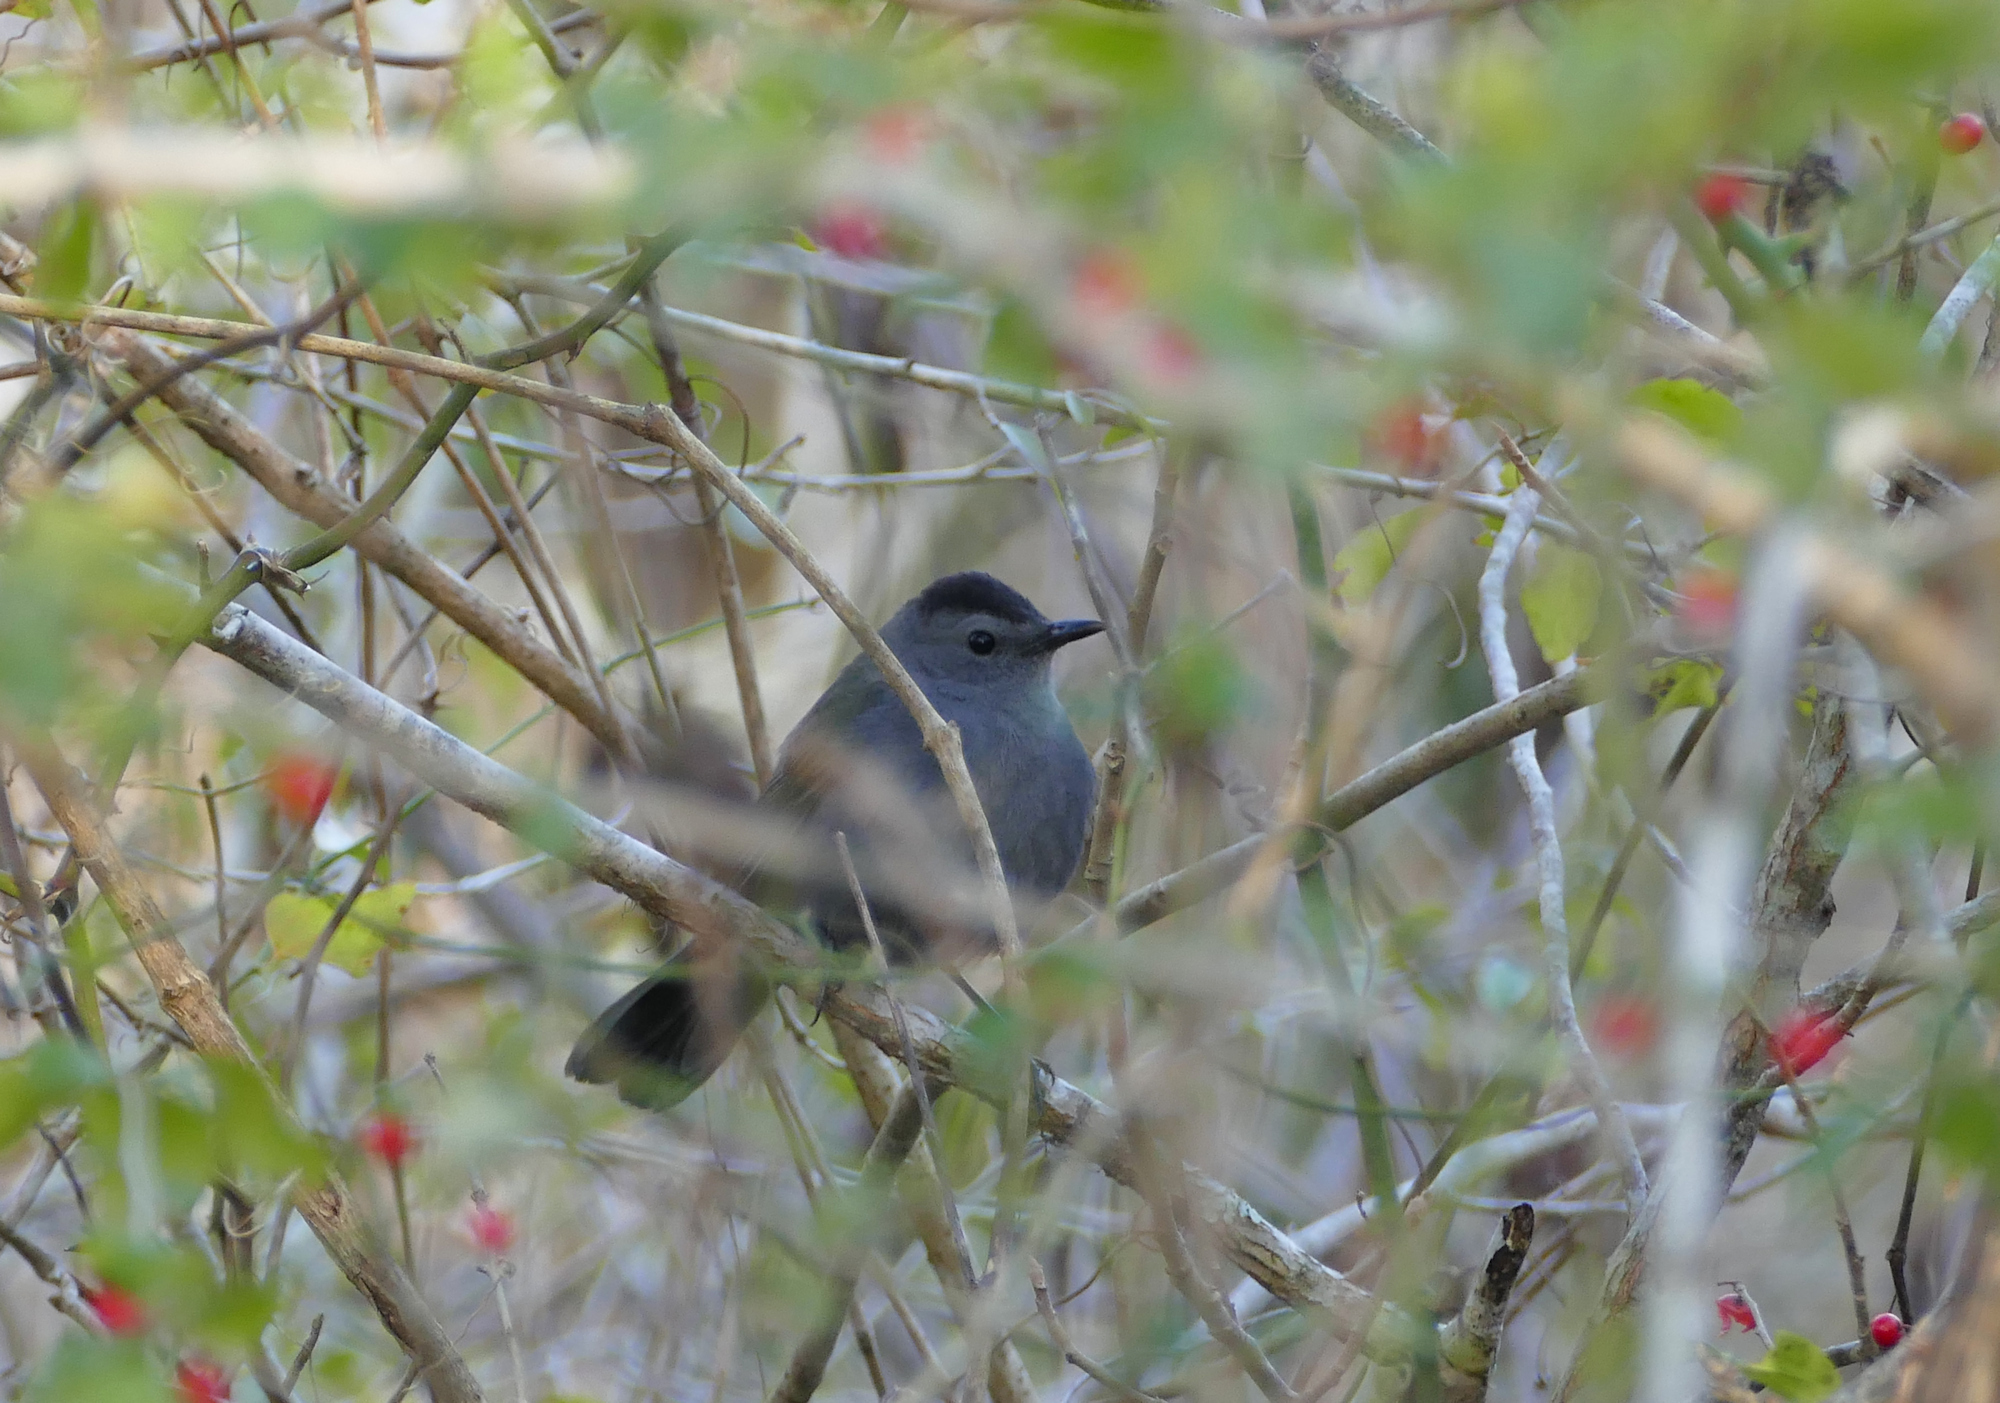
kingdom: Animalia
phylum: Chordata
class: Aves
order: Passeriformes
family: Mimidae
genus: Dumetella
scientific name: Dumetella carolinensis
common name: Gray catbird
